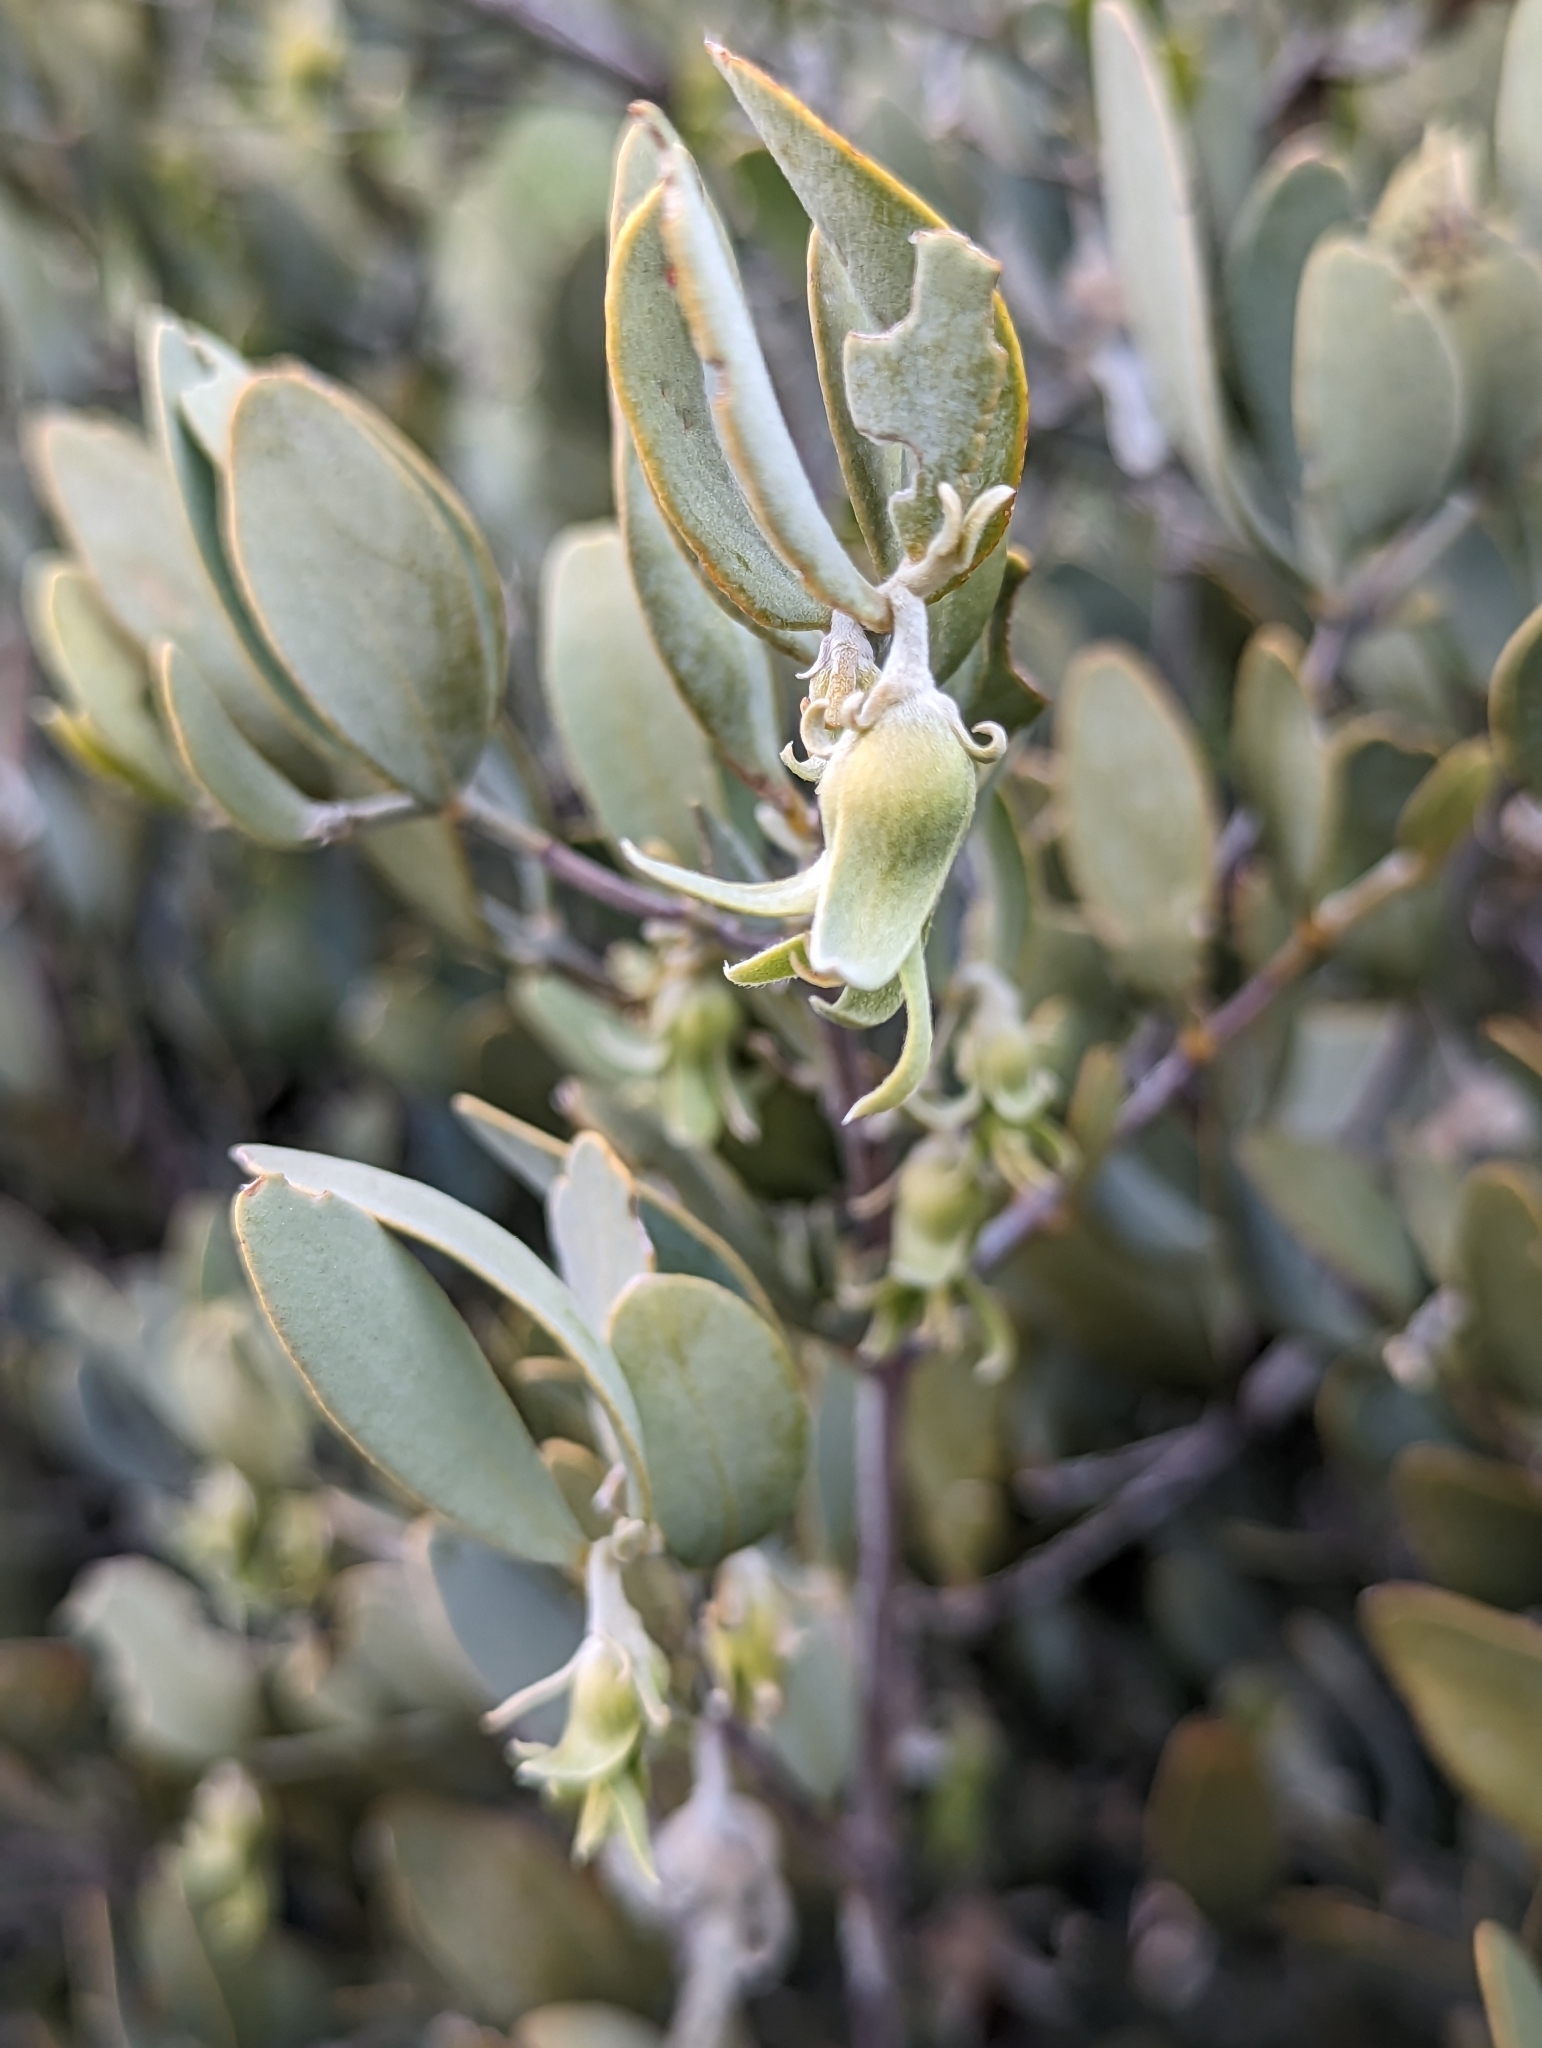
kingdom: Plantae
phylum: Tracheophyta
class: Magnoliopsida
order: Caryophyllales
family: Simmondsiaceae
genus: Simmondsia
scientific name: Simmondsia chinensis
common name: Jojoba
